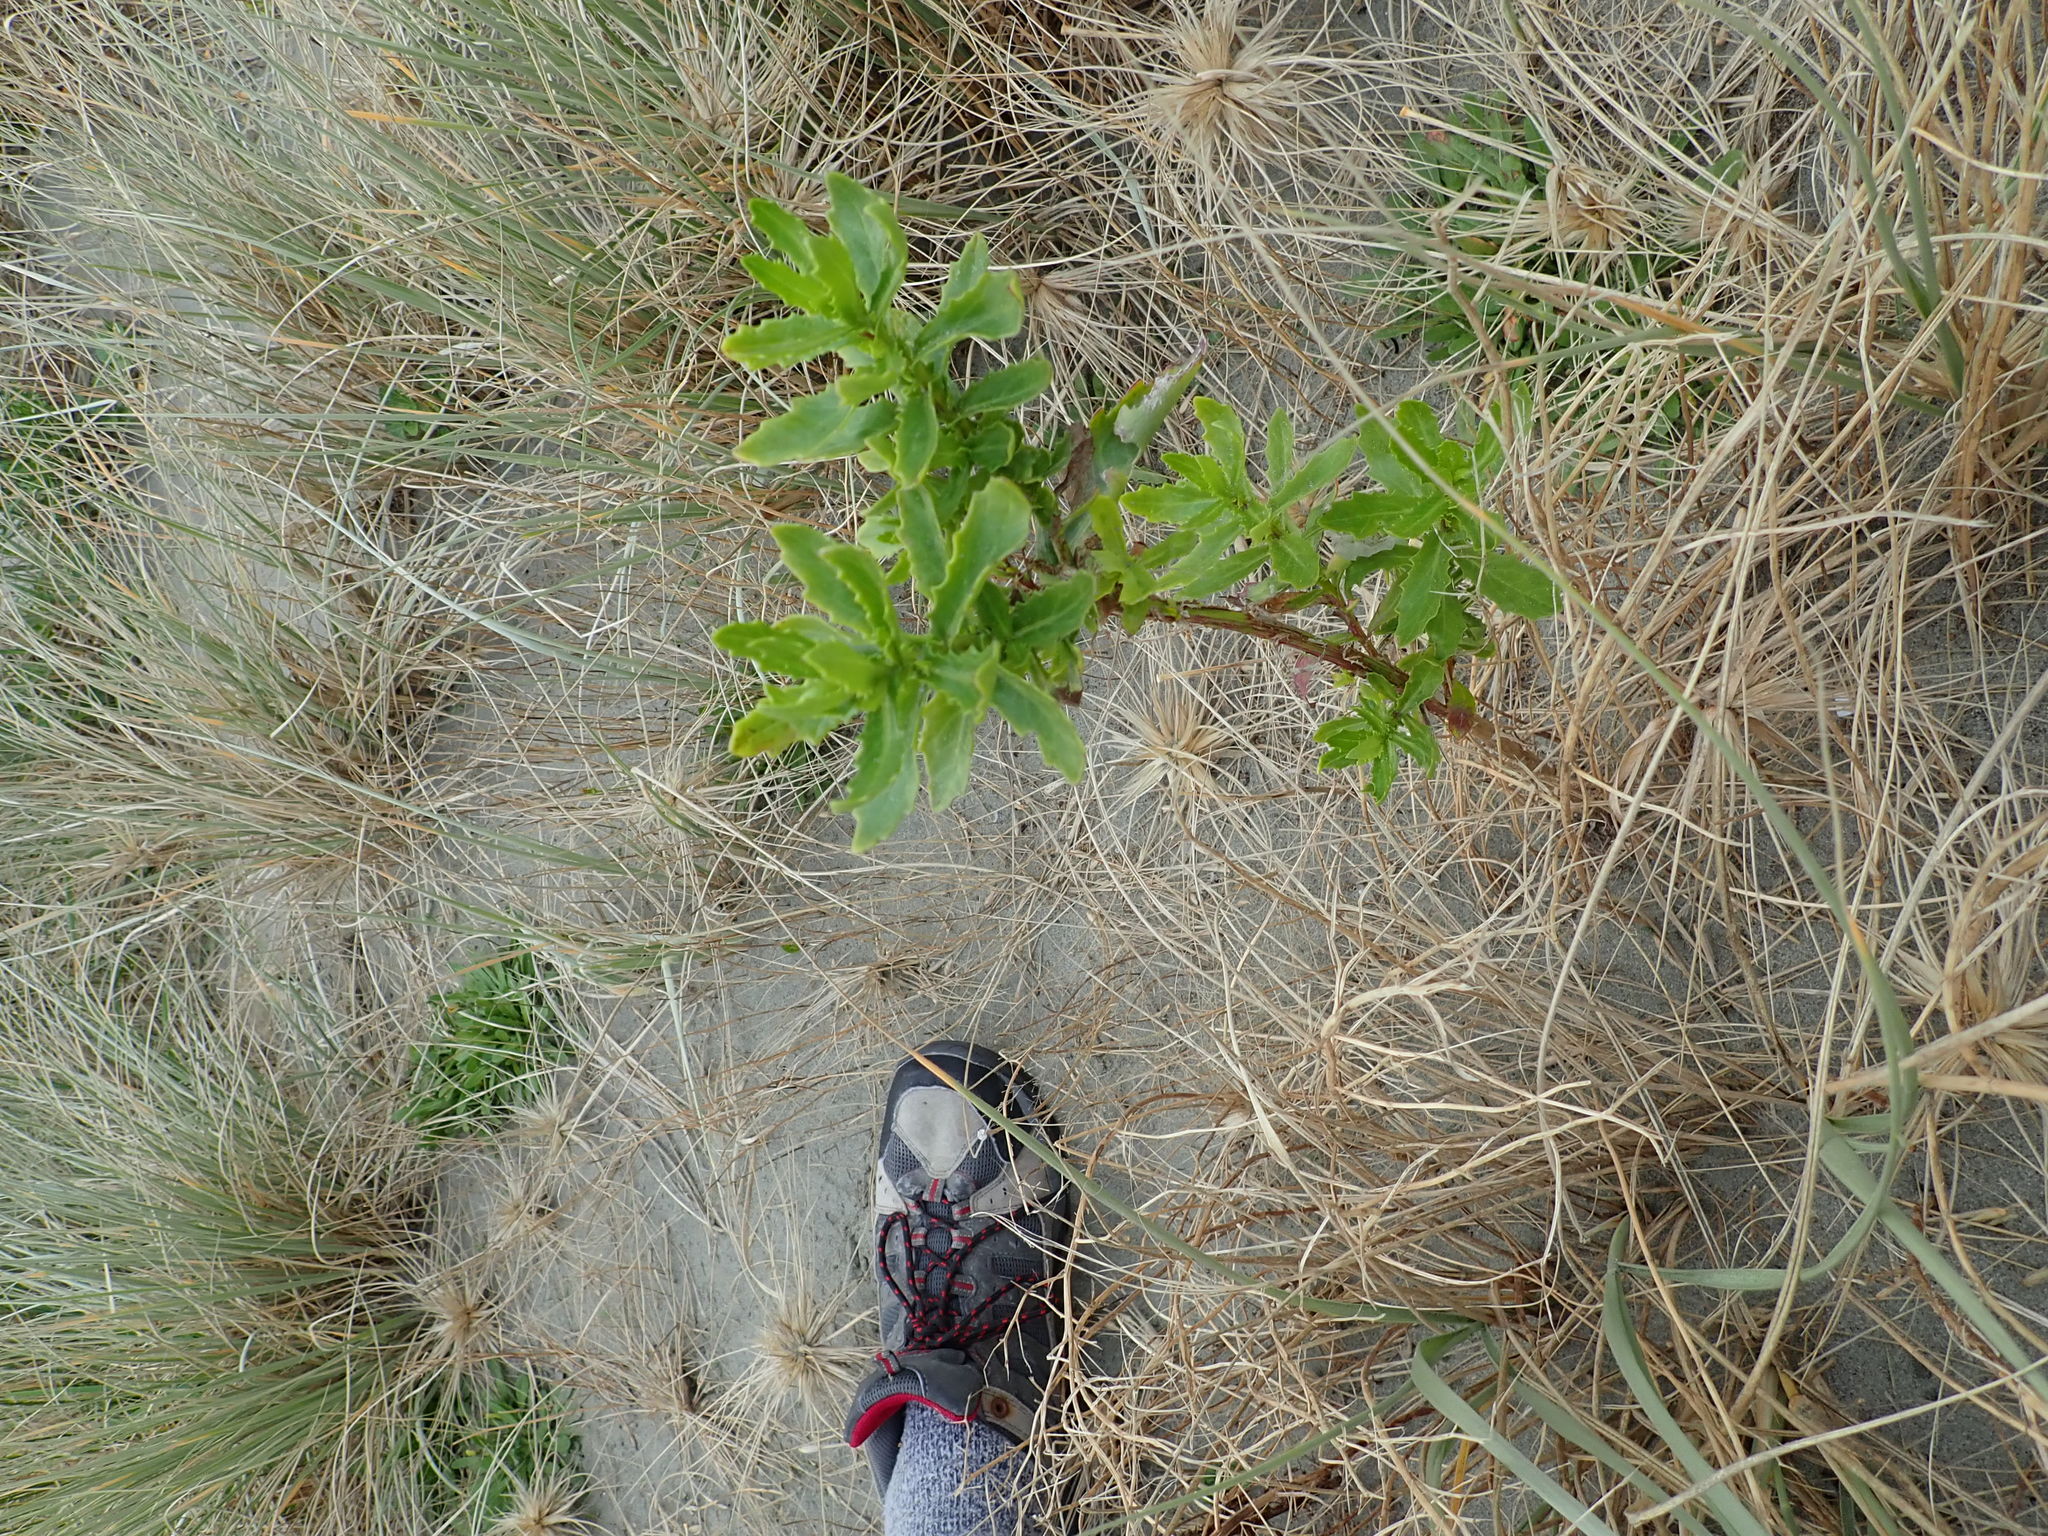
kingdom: Plantae
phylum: Tracheophyta
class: Magnoliopsida
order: Asterales
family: Asteraceae
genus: Senecio
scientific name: Senecio glastifolius
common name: Woad-leaved ragwort
